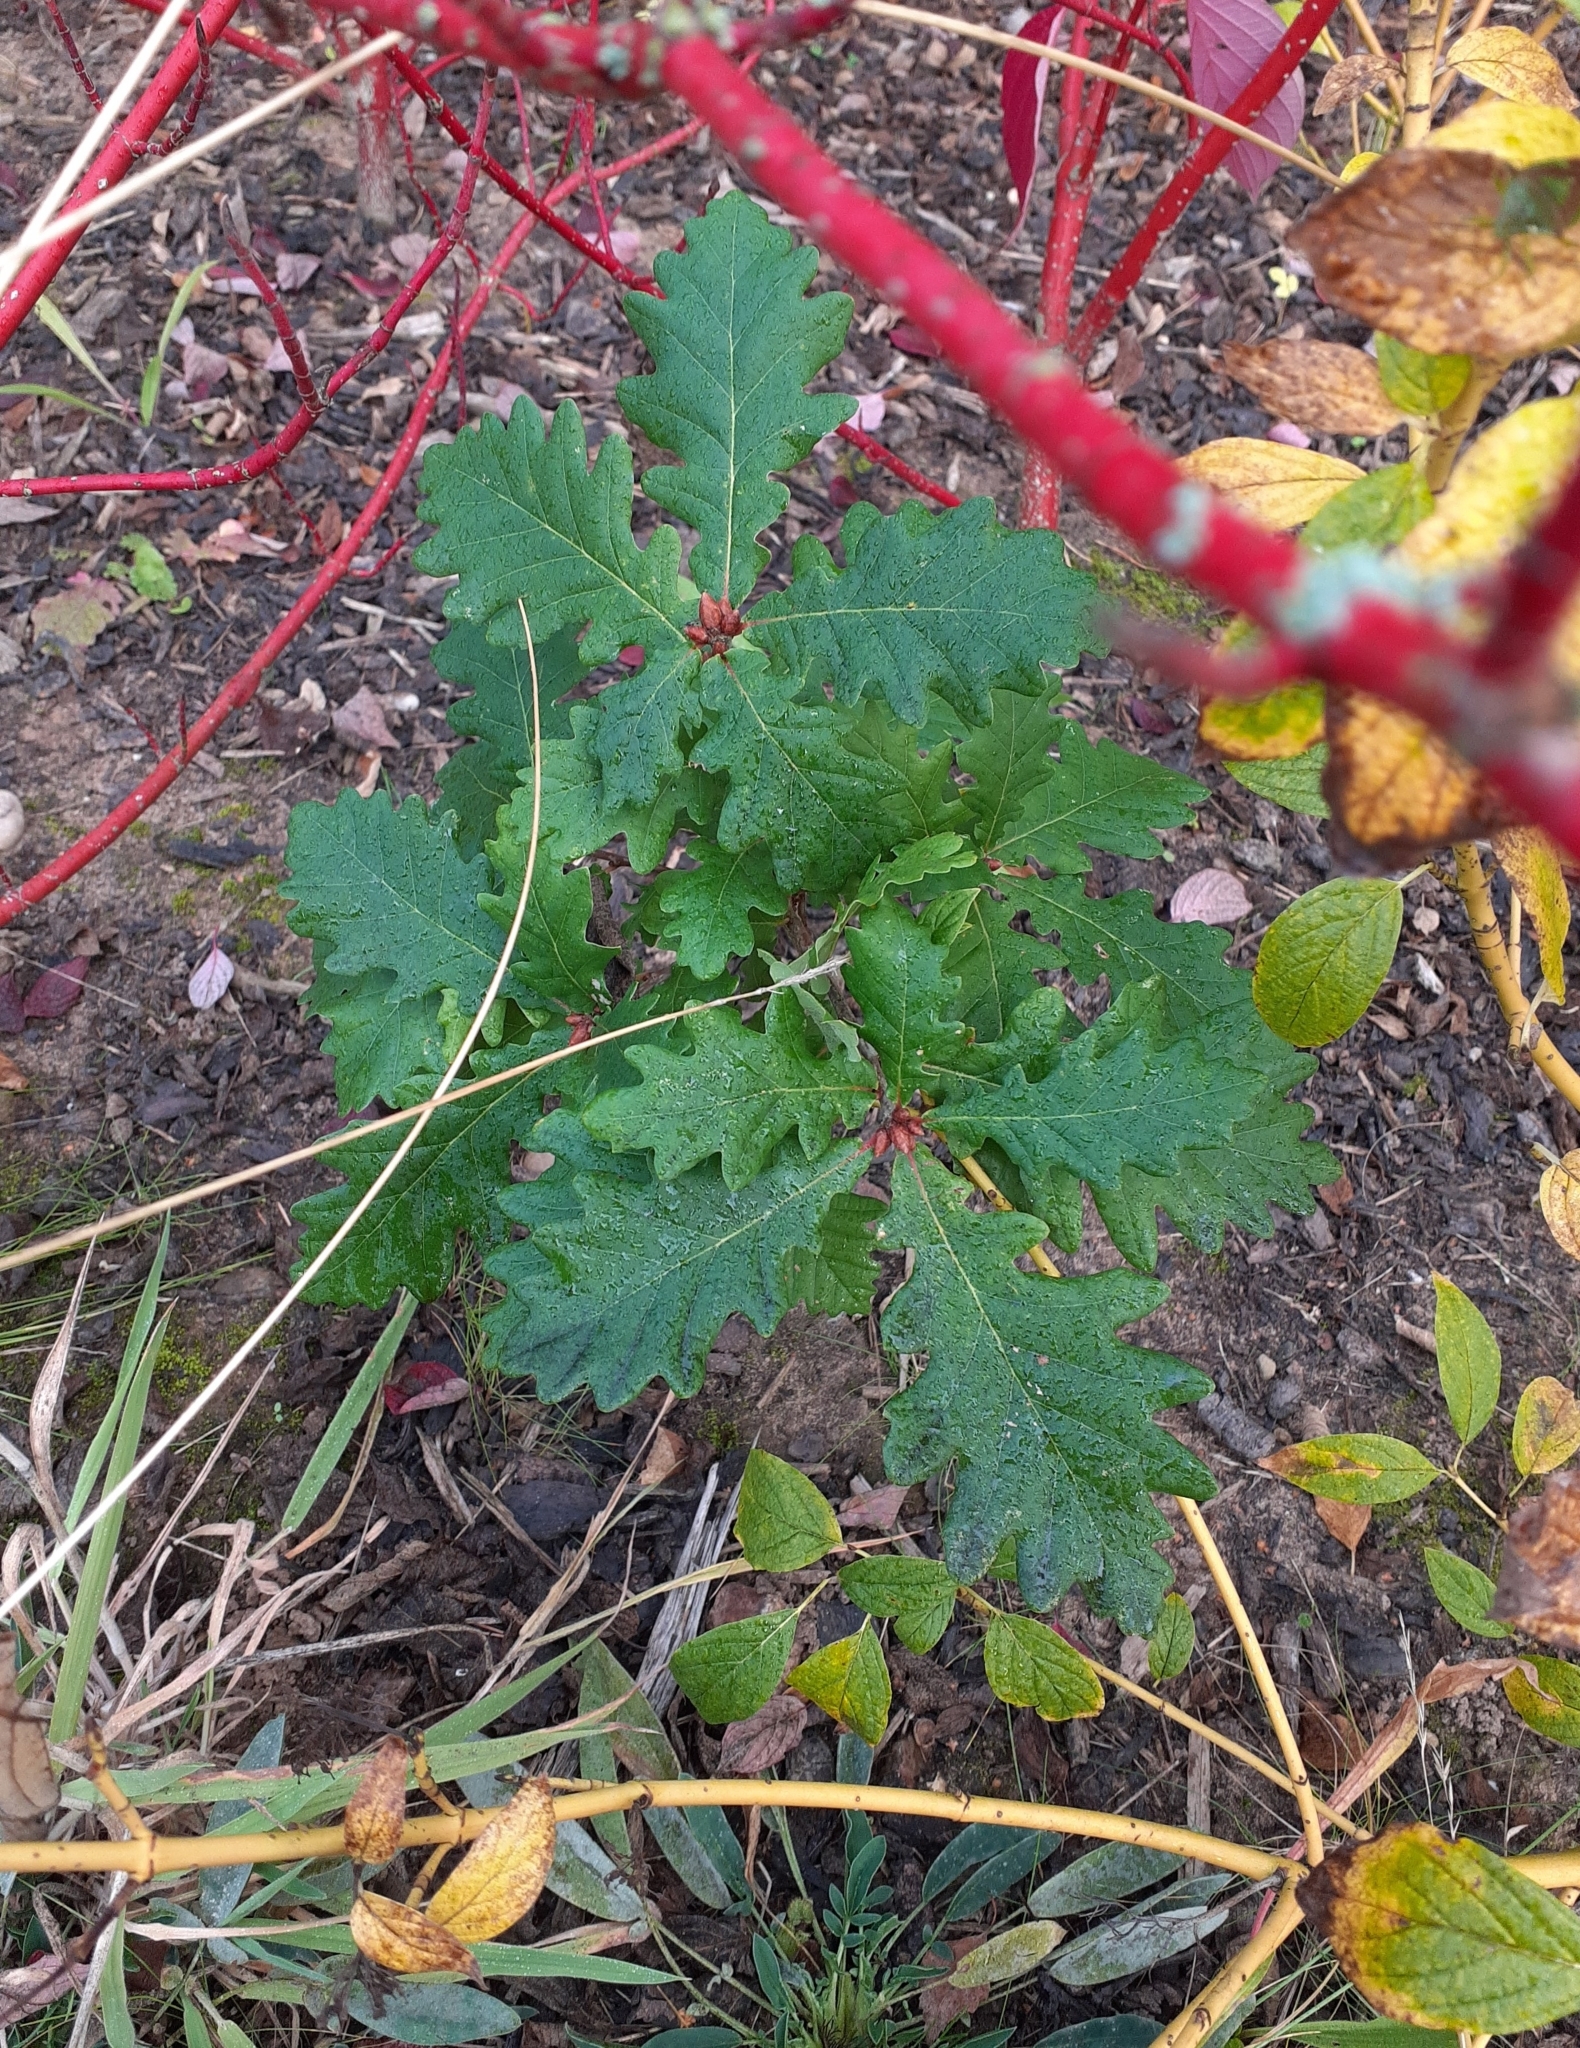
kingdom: Plantae
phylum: Tracheophyta
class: Magnoliopsida
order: Fagales
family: Fagaceae
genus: Quercus
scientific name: Quercus robur
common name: Pedunculate oak
